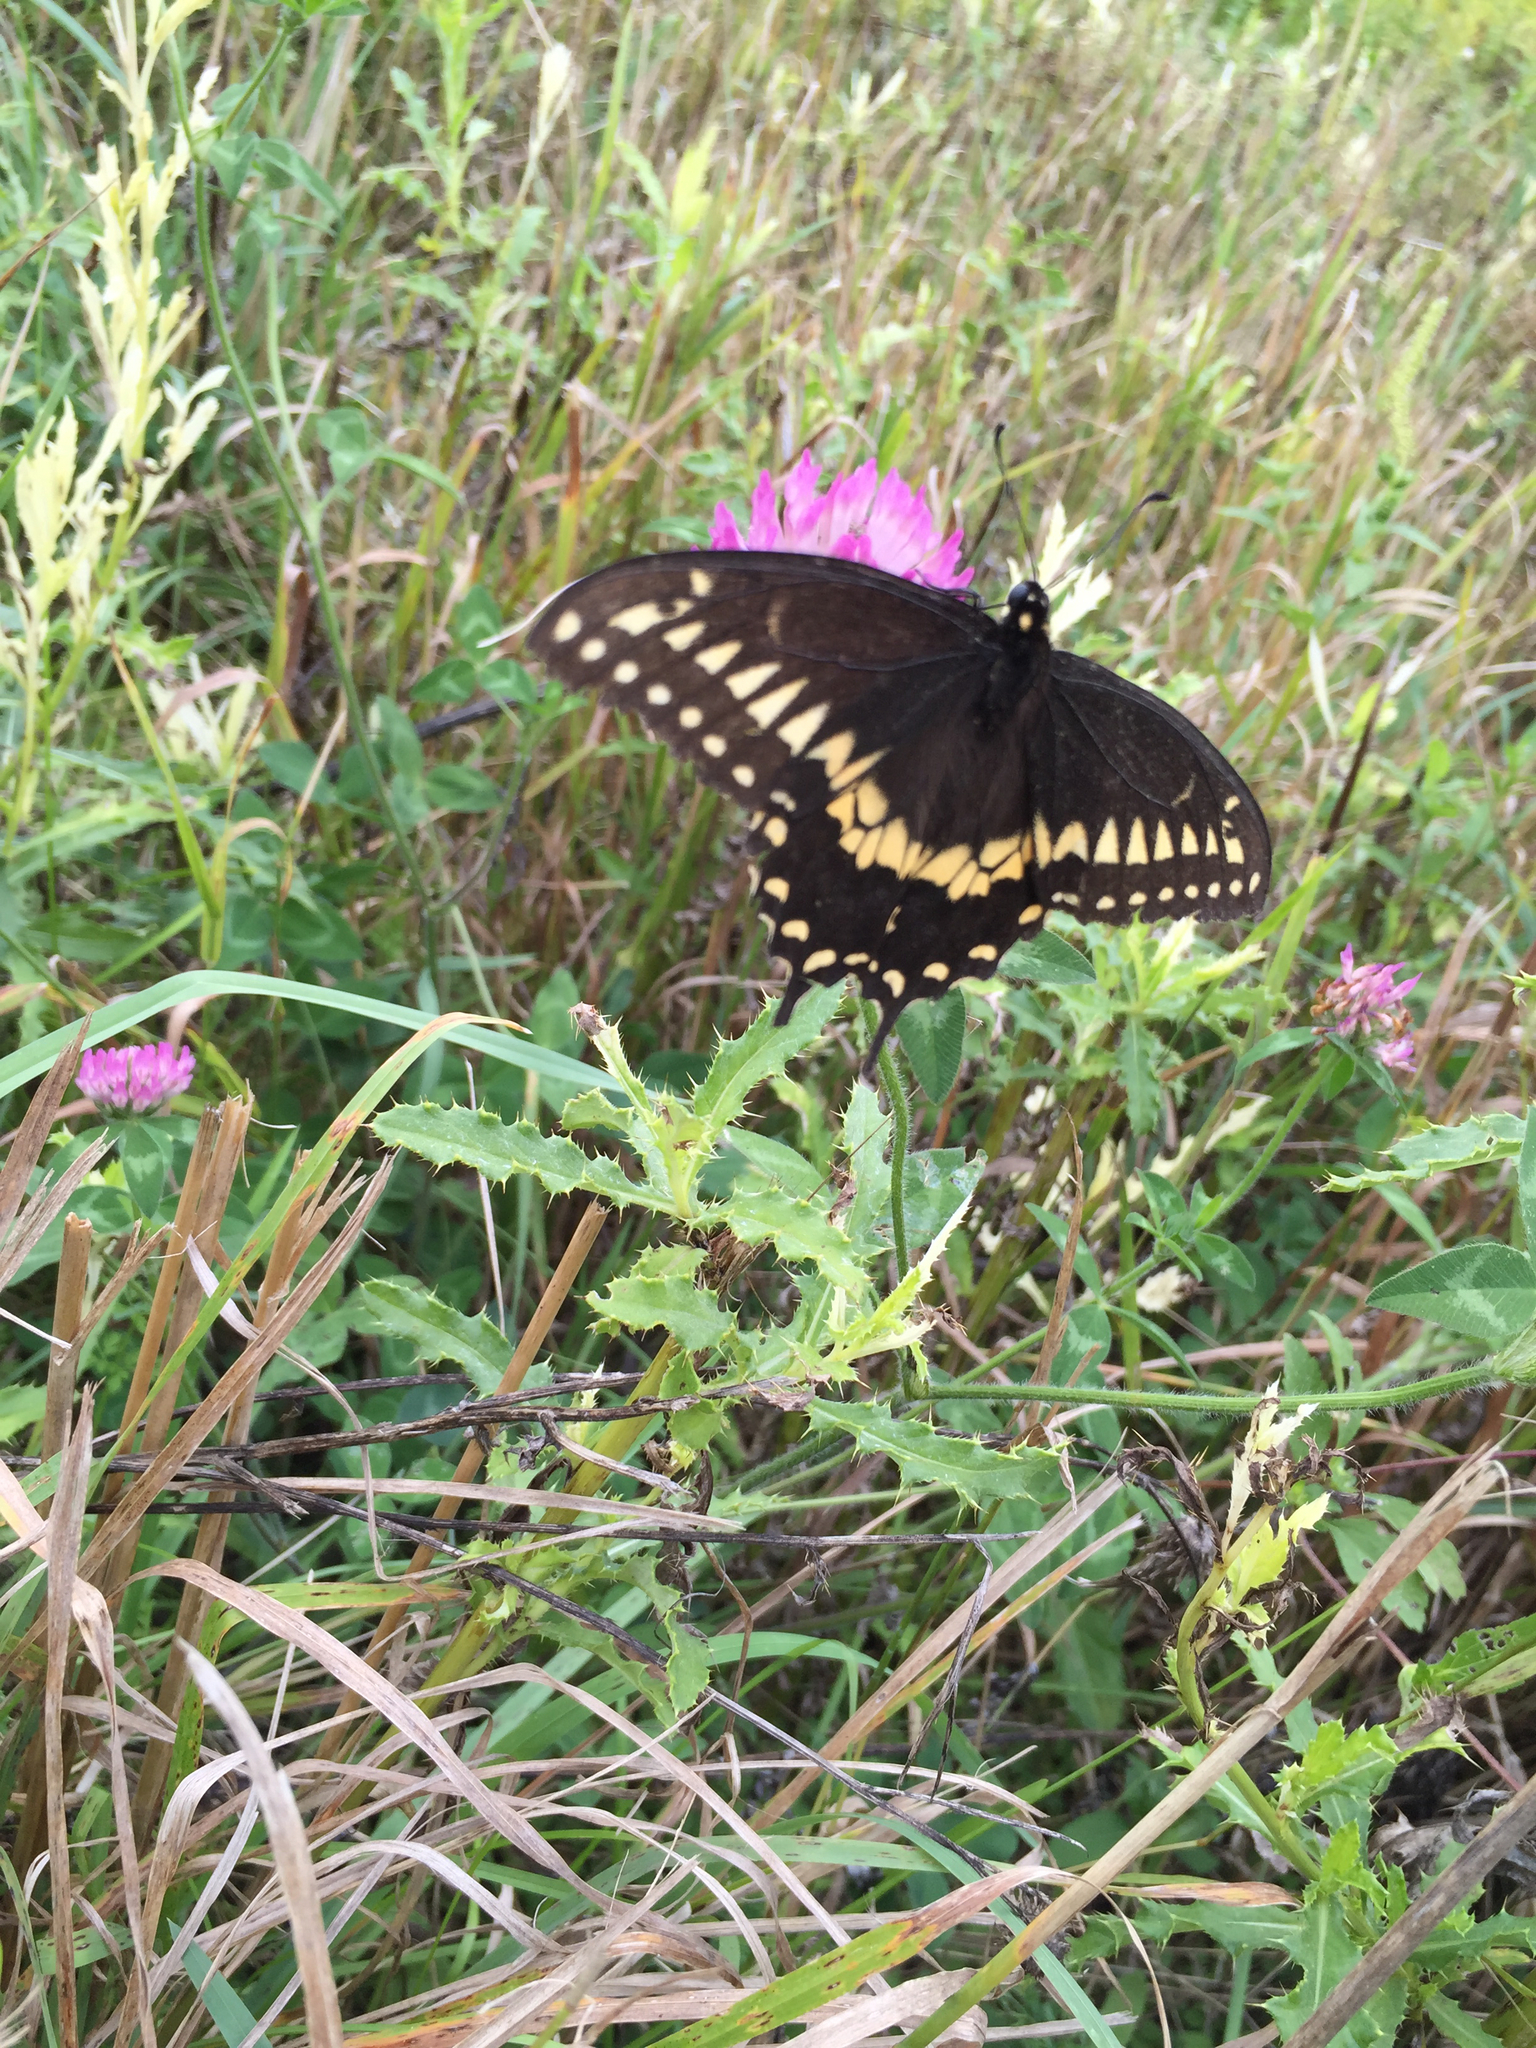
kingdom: Animalia
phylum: Arthropoda
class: Insecta
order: Lepidoptera
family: Papilionidae
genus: Papilio
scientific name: Papilio polyxenes
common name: Black swallowtail
